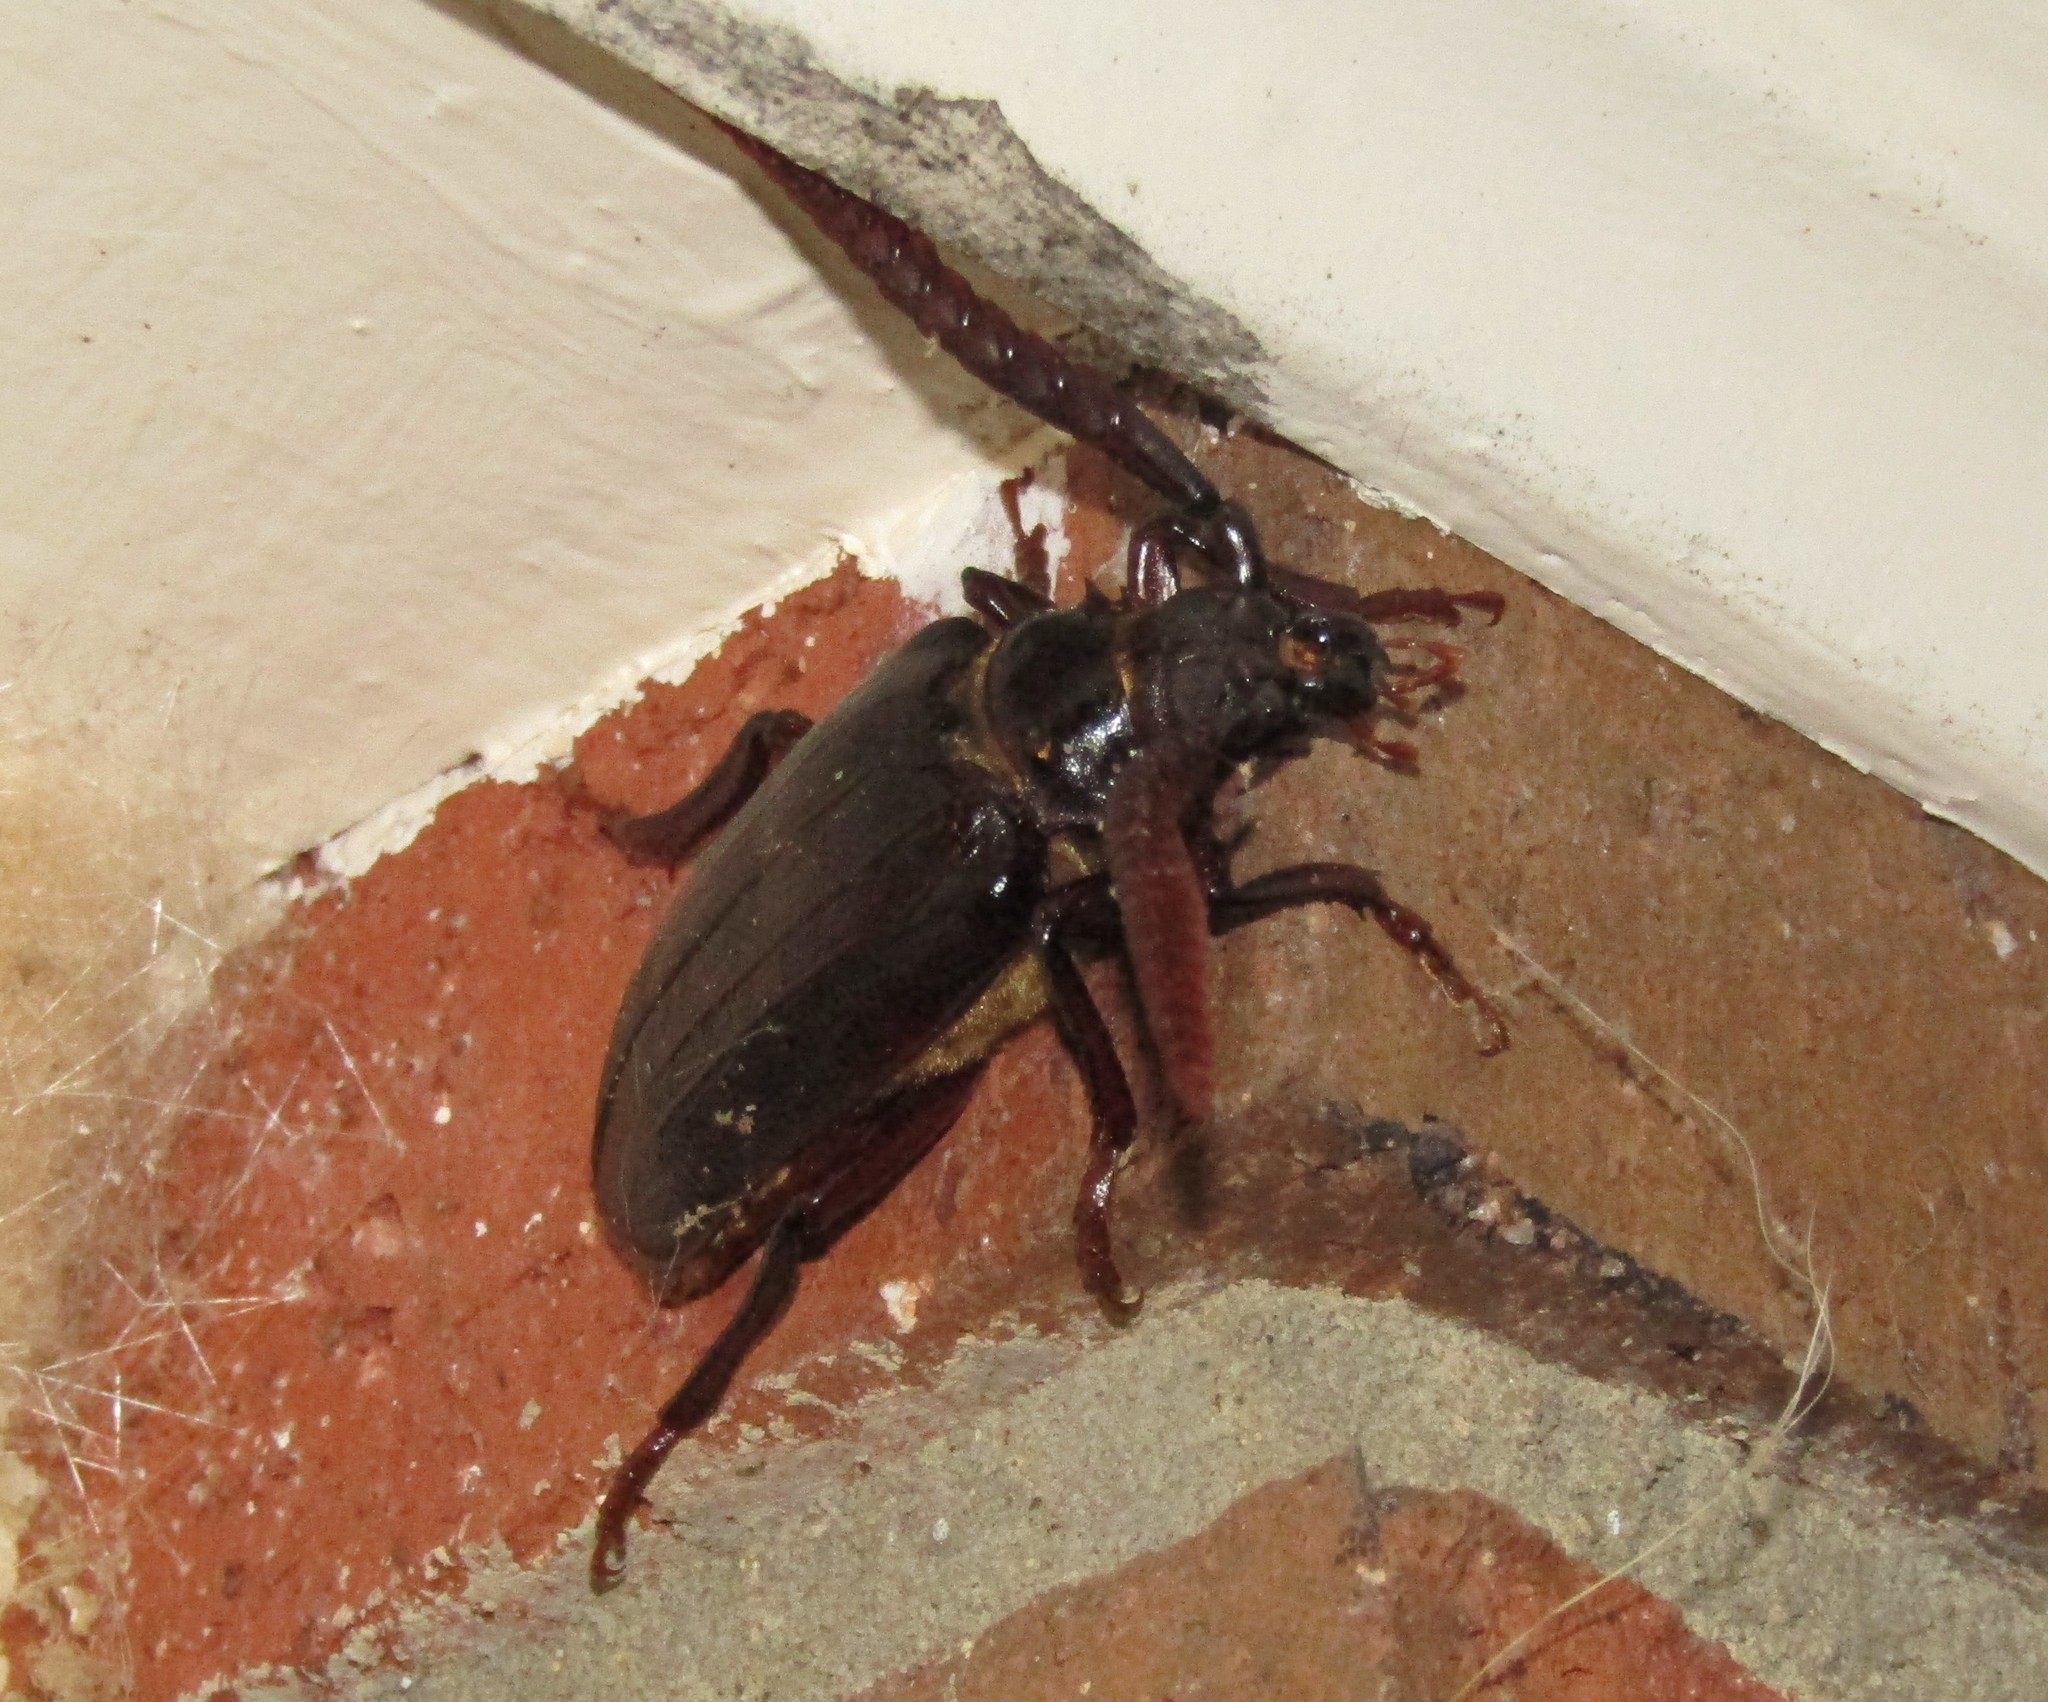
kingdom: Animalia
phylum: Arthropoda
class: Insecta
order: Coleoptera
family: Cerambycidae
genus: Prionus
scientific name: Prionus imbricornis
